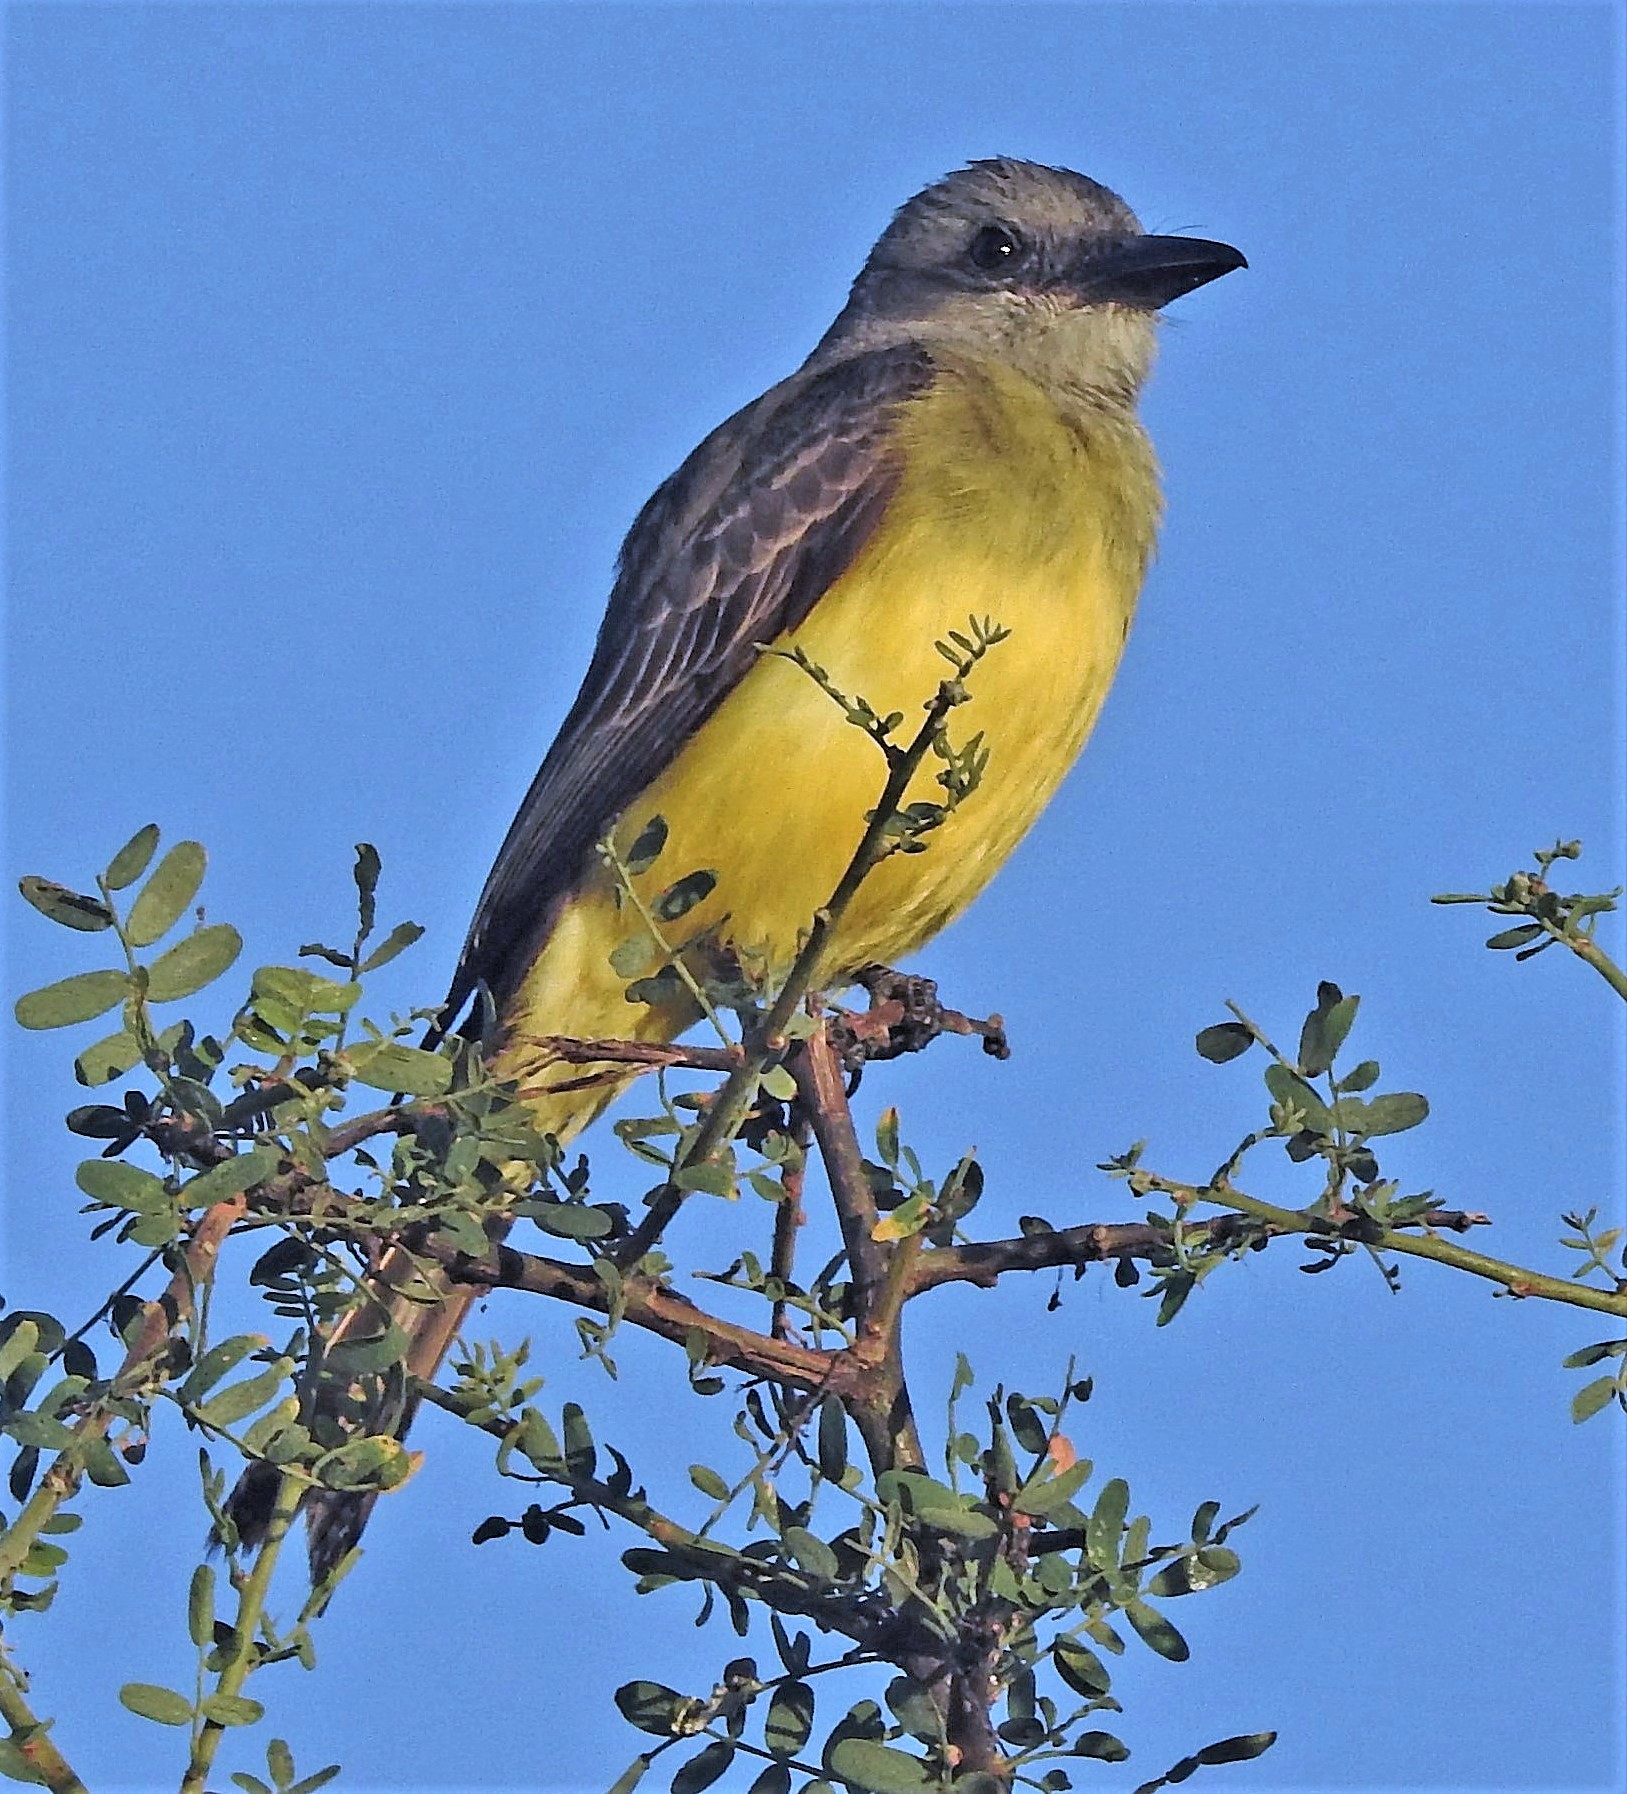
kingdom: Animalia
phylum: Chordata
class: Aves
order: Passeriformes
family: Tyrannidae
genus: Tyrannus
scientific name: Tyrannus melancholicus
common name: Tropical kingbird
